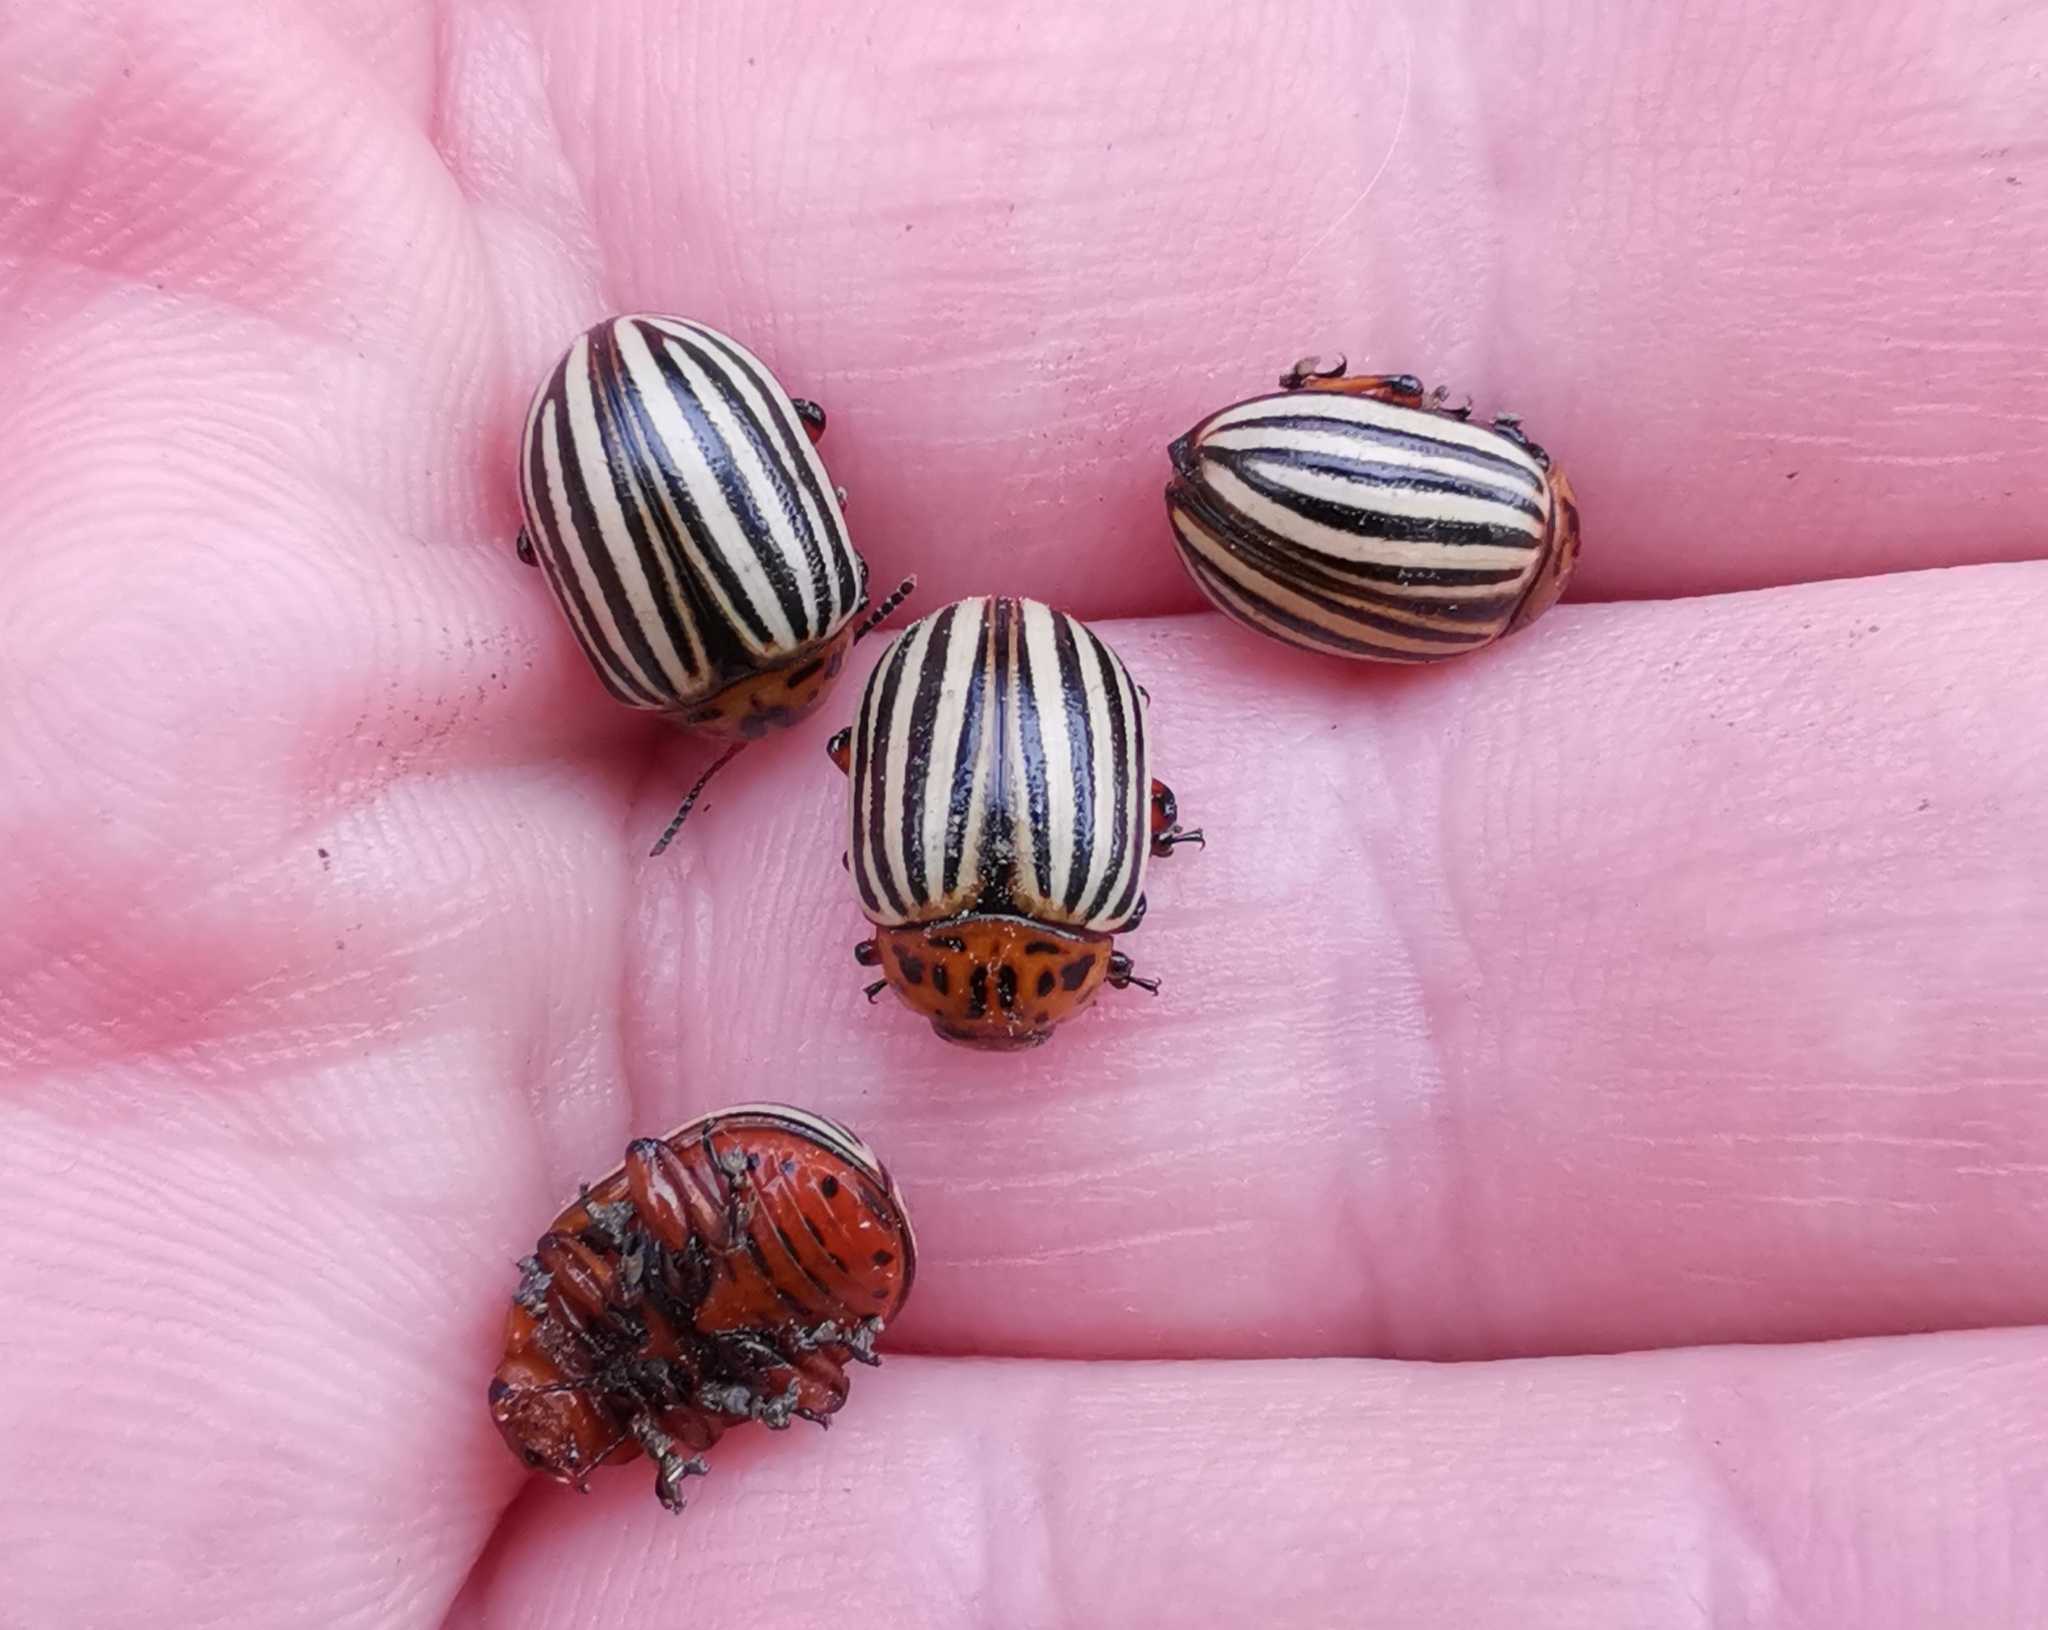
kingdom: Animalia
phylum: Arthropoda
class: Insecta
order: Coleoptera
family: Chrysomelidae
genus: Leptinotarsa
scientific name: Leptinotarsa decemlineata
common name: Colorado potato beetle
